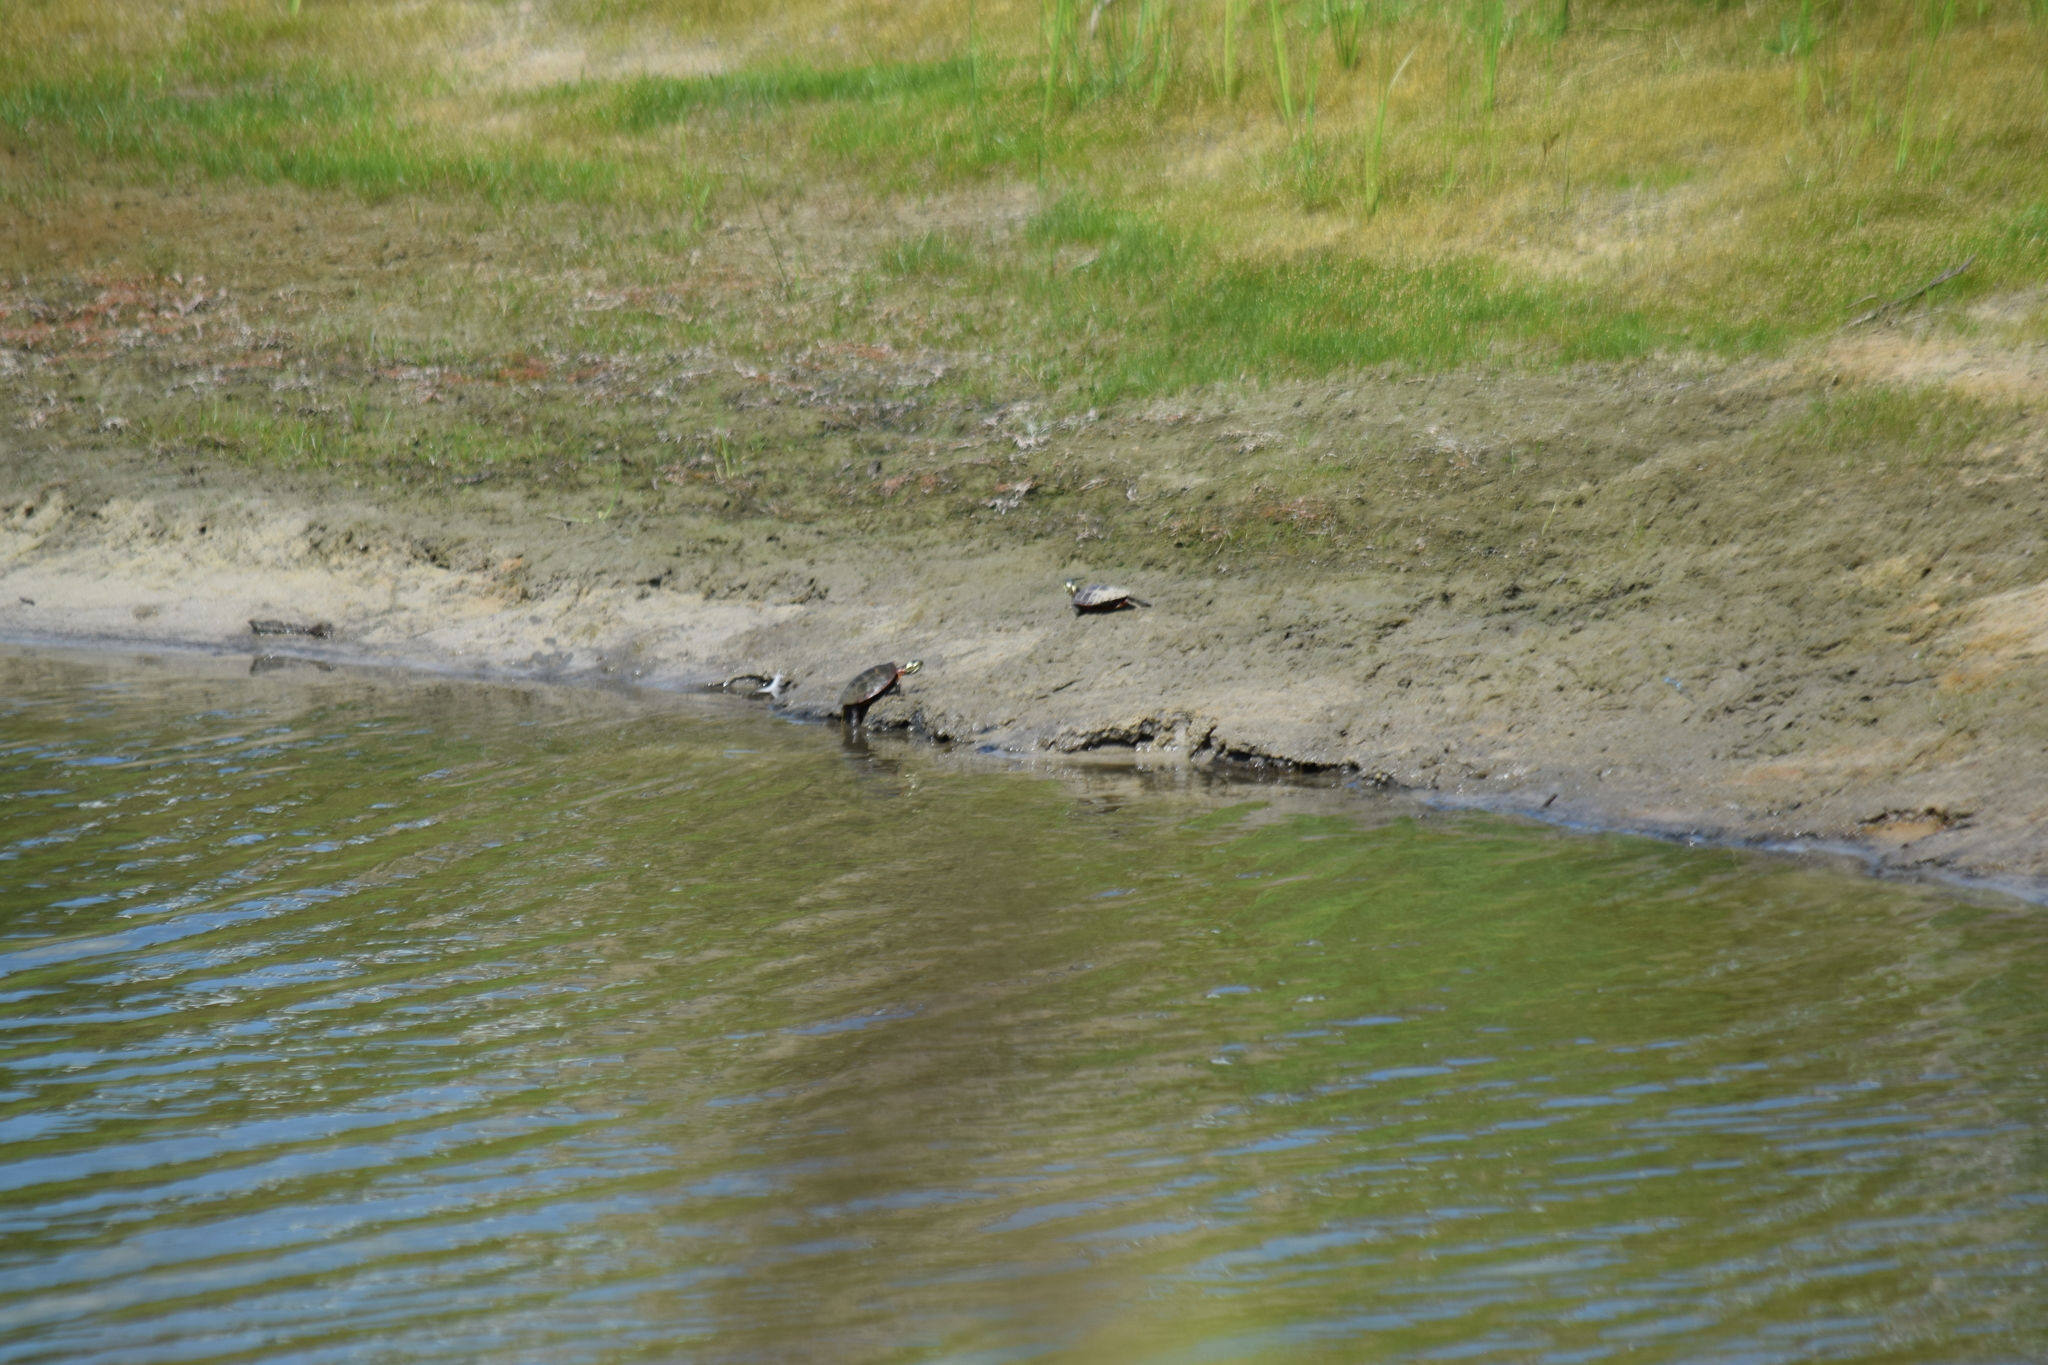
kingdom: Animalia
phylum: Chordata
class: Testudines
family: Emydidae
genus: Chrysemys
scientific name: Chrysemys picta
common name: Painted turtle
